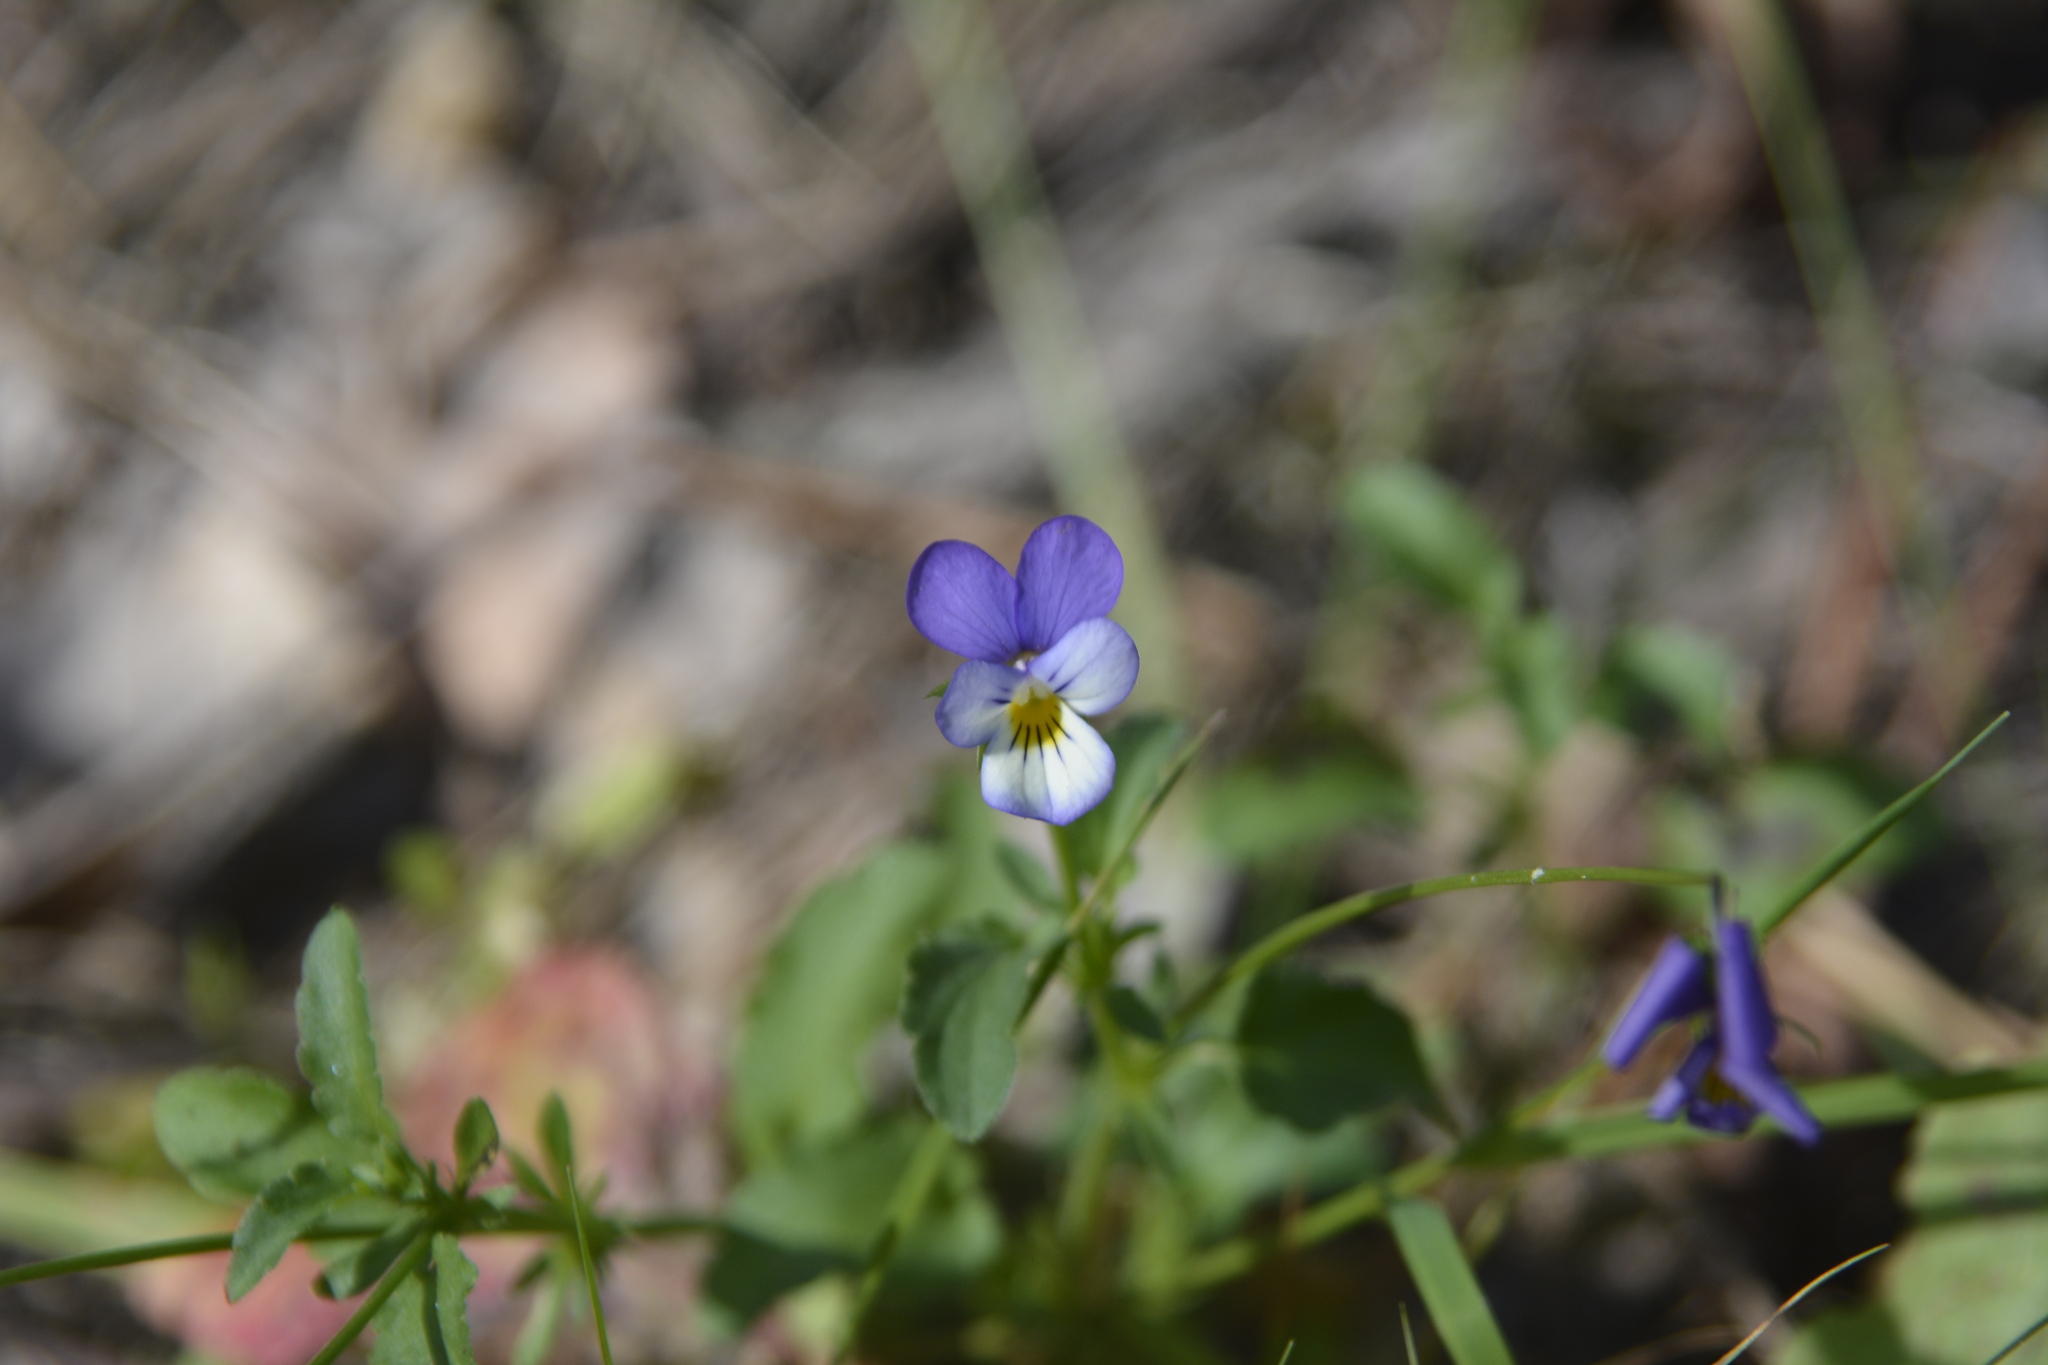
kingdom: Plantae
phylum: Tracheophyta
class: Magnoliopsida
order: Malpighiales
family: Violaceae
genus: Viola
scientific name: Viola tricolor
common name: Pansy
